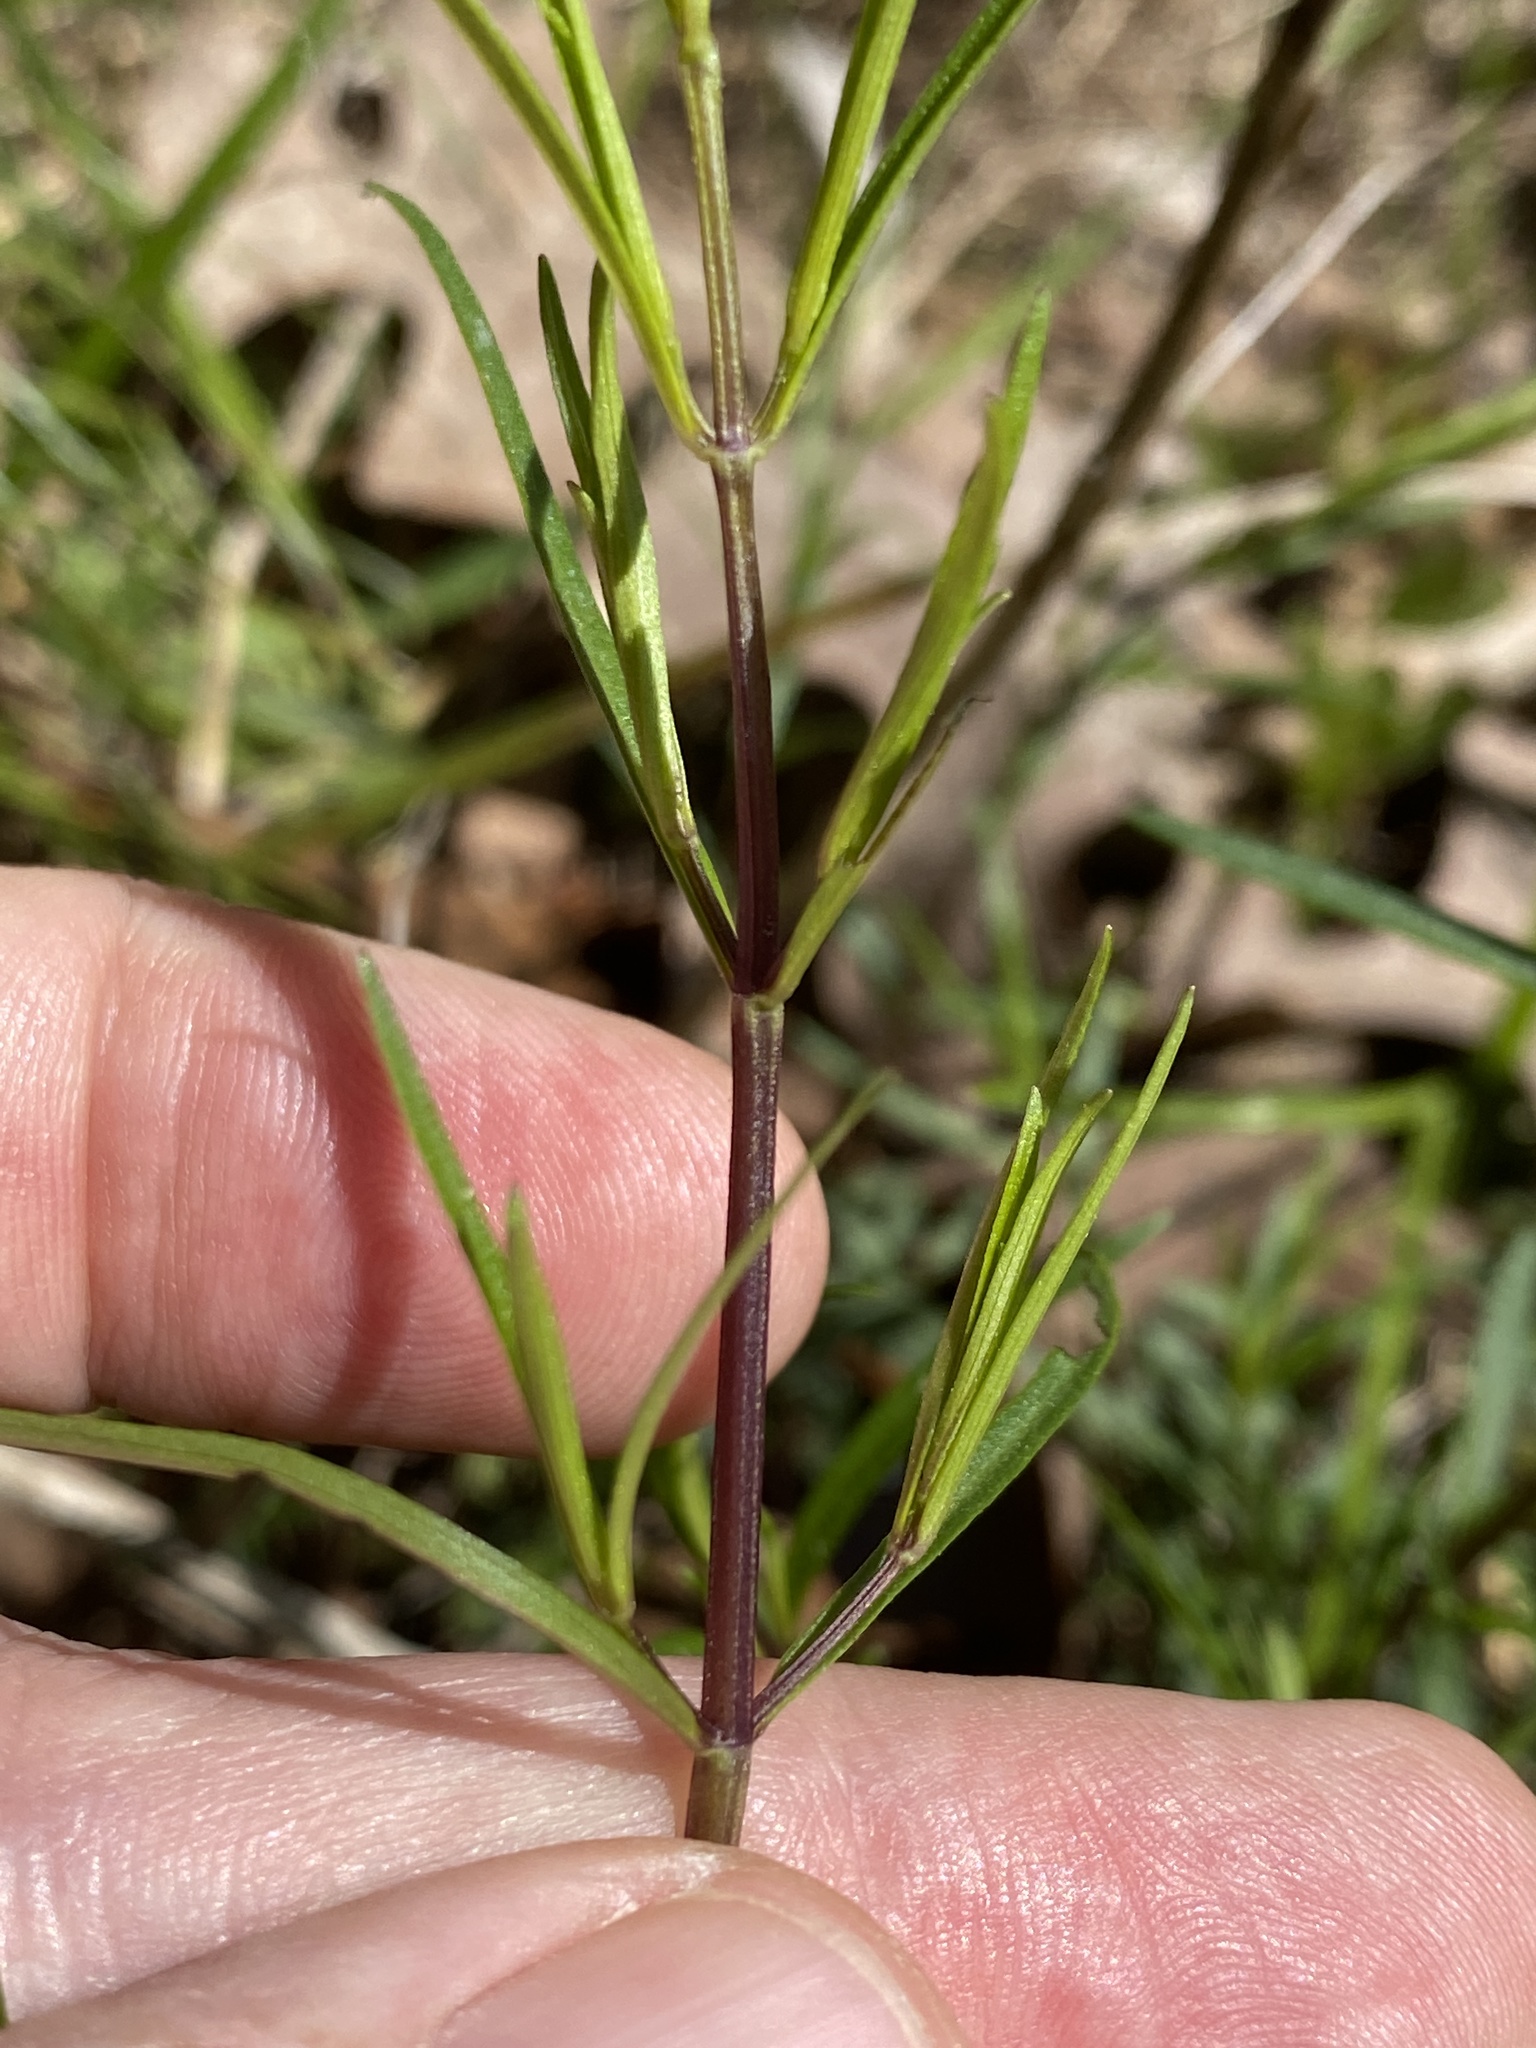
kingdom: Plantae
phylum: Tracheophyta
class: Magnoliopsida
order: Lamiales
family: Lamiaceae
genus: Pycnanthemum
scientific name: Pycnanthemum tenuifolium
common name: Narrow-leaf mountain-mint
